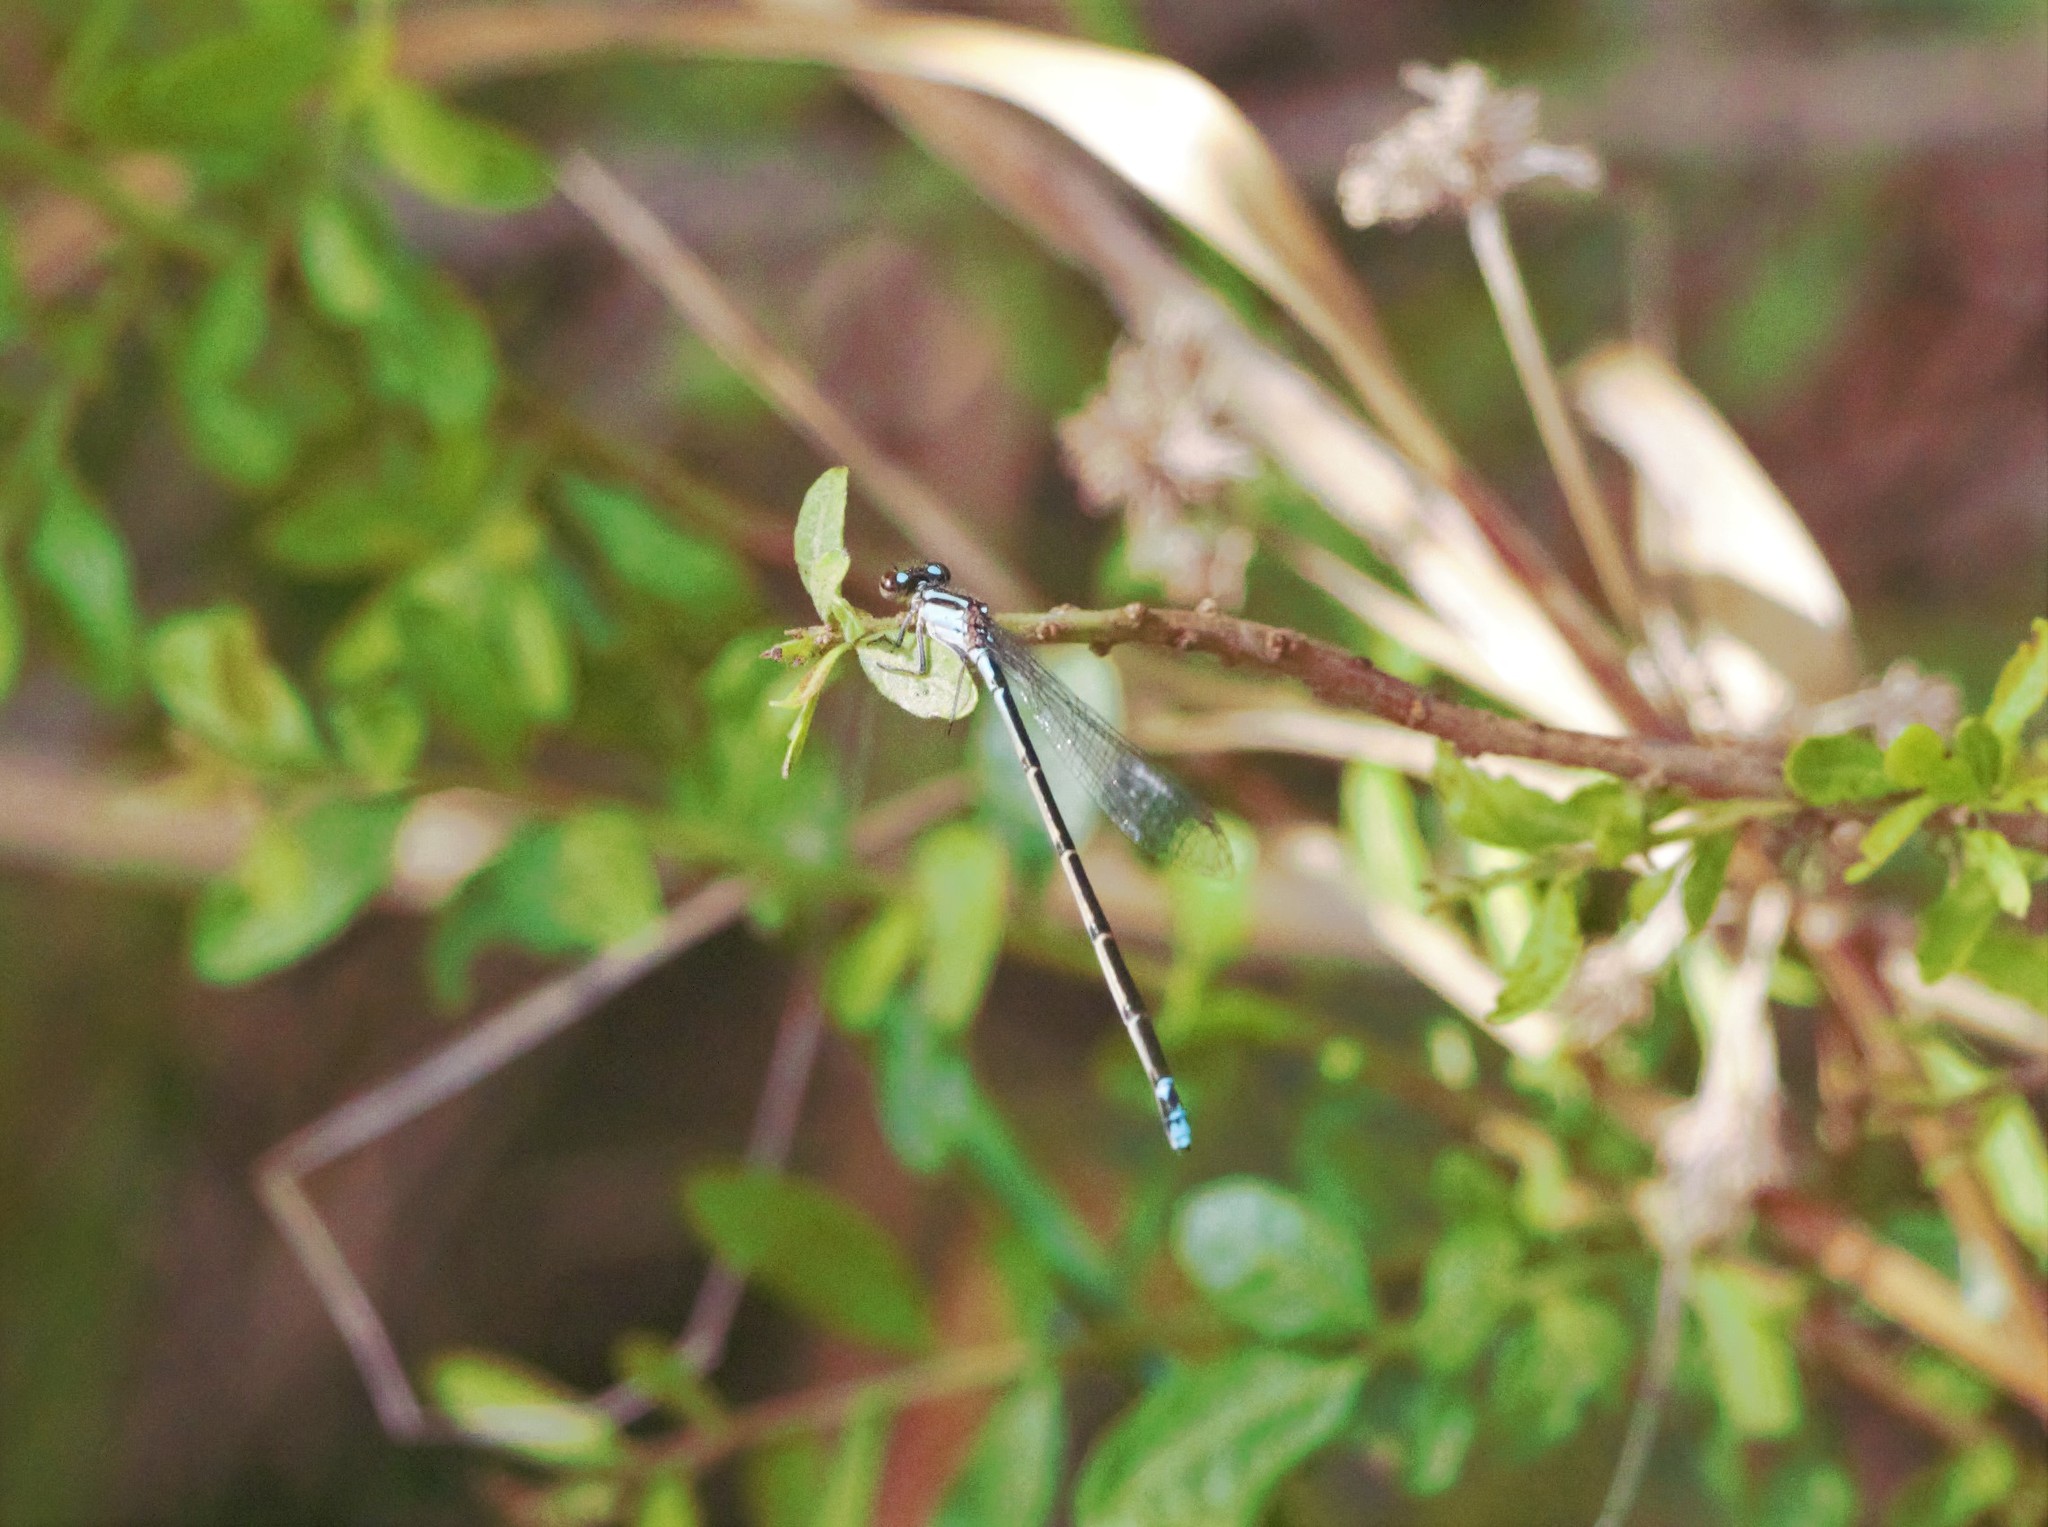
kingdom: Animalia
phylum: Arthropoda
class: Insecta
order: Odonata
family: Coenagrionidae
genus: Acanthagrion
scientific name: Acanthagrion lancea
